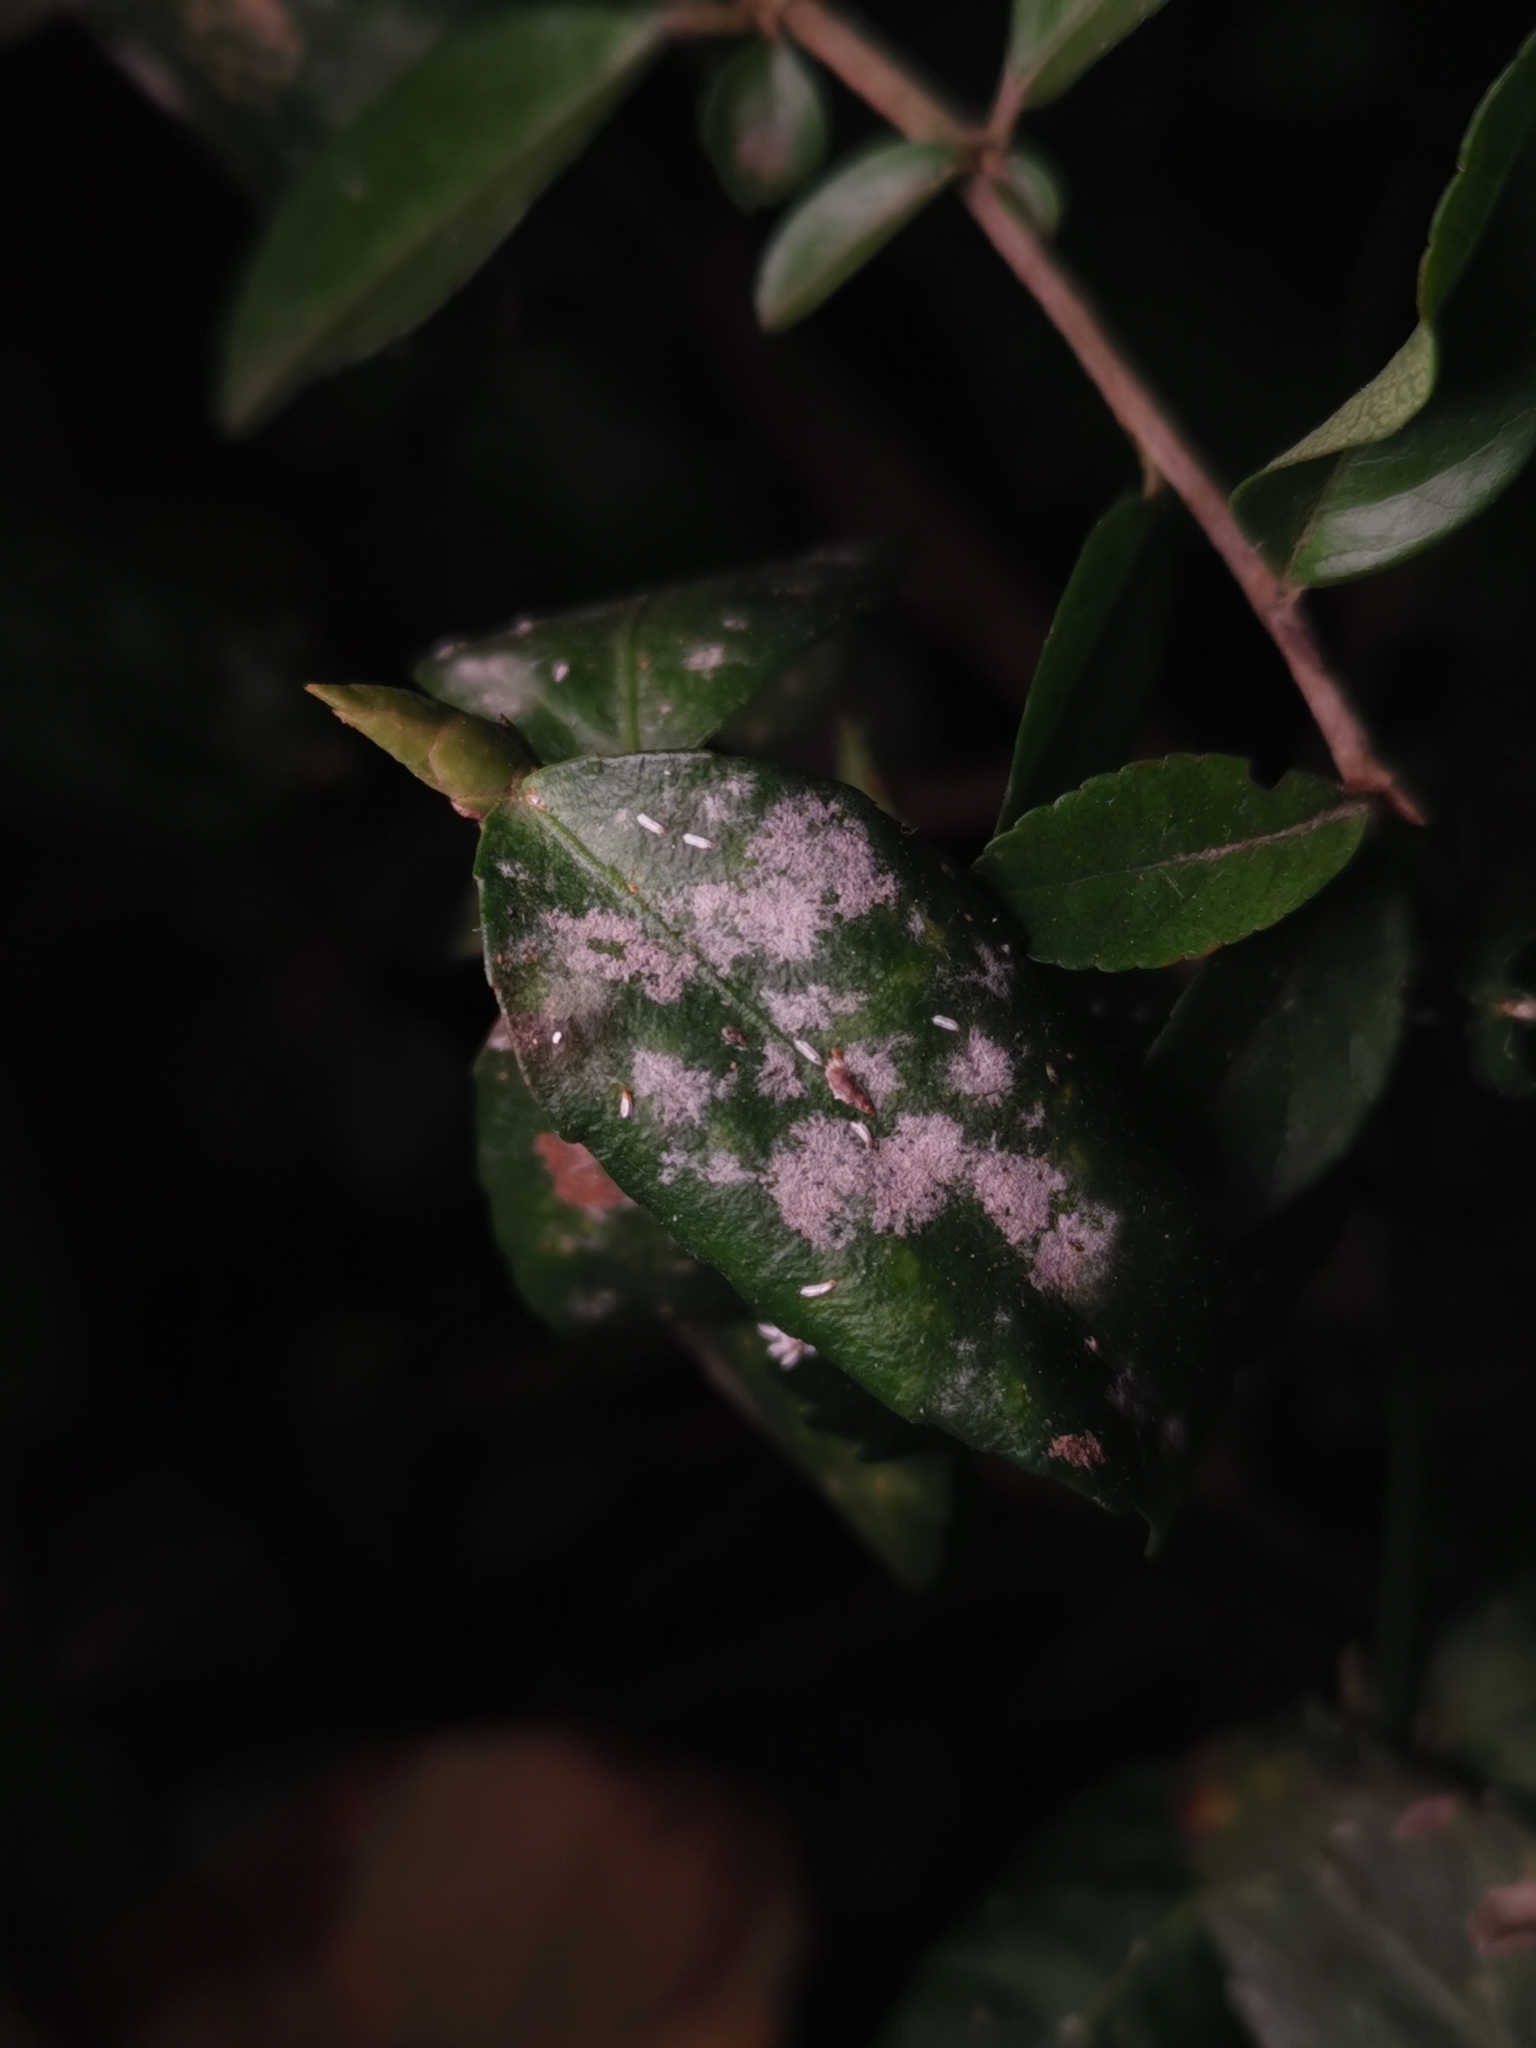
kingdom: Fungi
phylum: Ascomycota
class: Leotiomycetes
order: Helotiales
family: Erysiphaceae
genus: Erysiphe
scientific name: Erysiphe euonymicola
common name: Spindletree mildew
